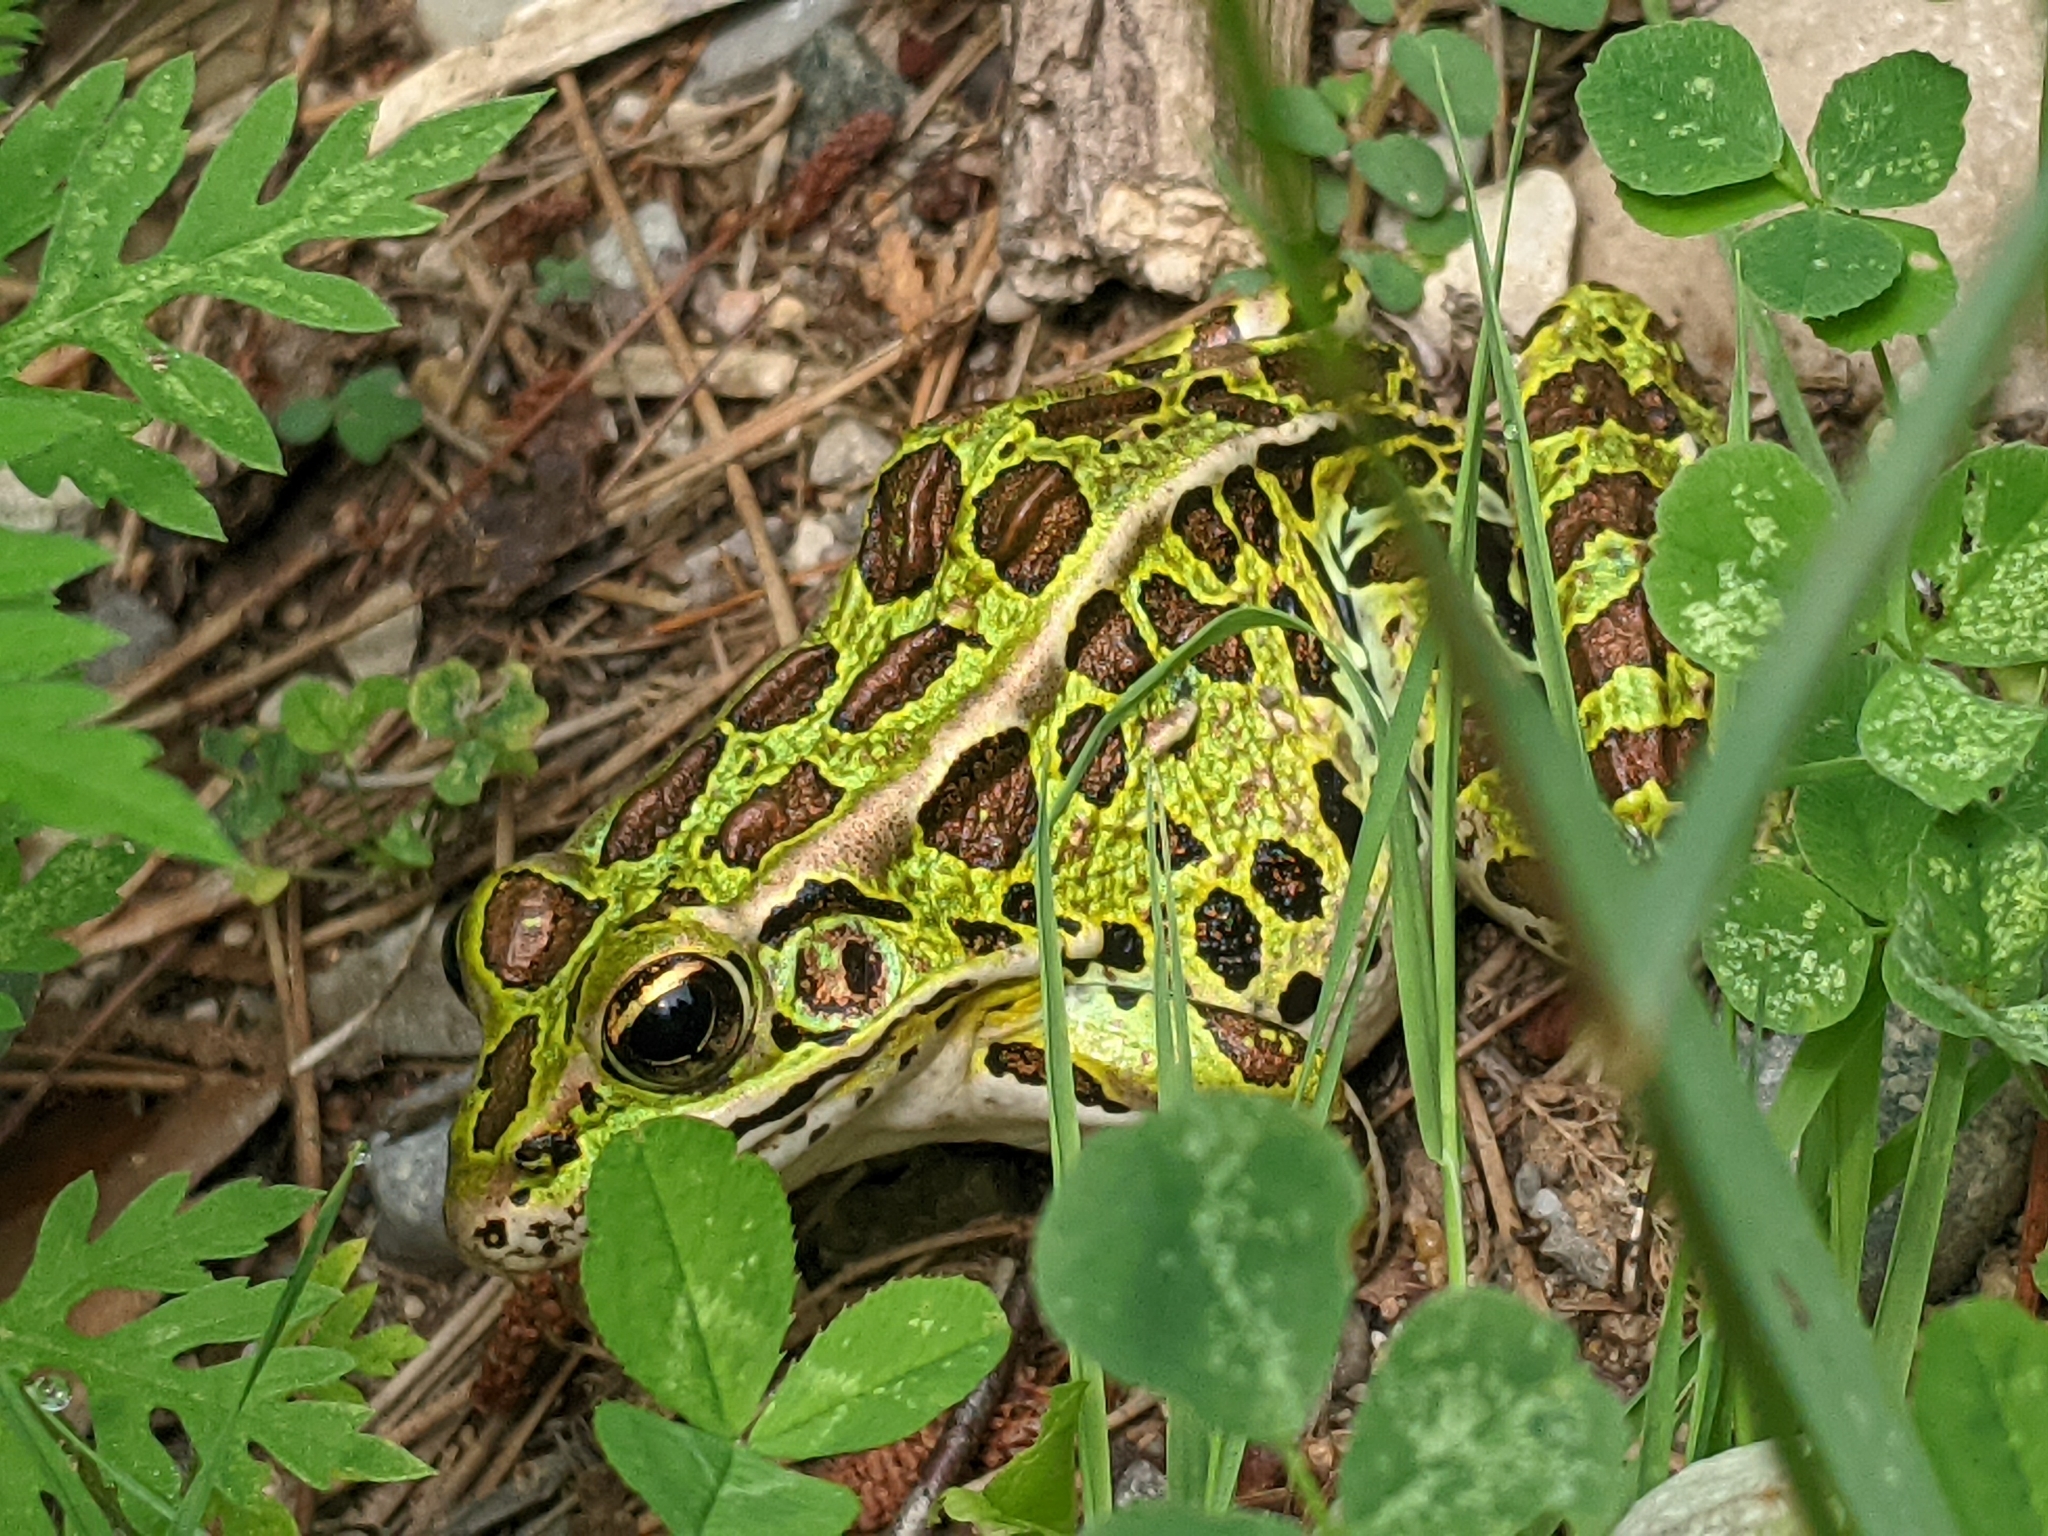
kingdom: Animalia
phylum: Chordata
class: Amphibia
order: Anura
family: Ranidae
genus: Lithobates
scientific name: Lithobates pipiens
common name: Northern leopard frog
